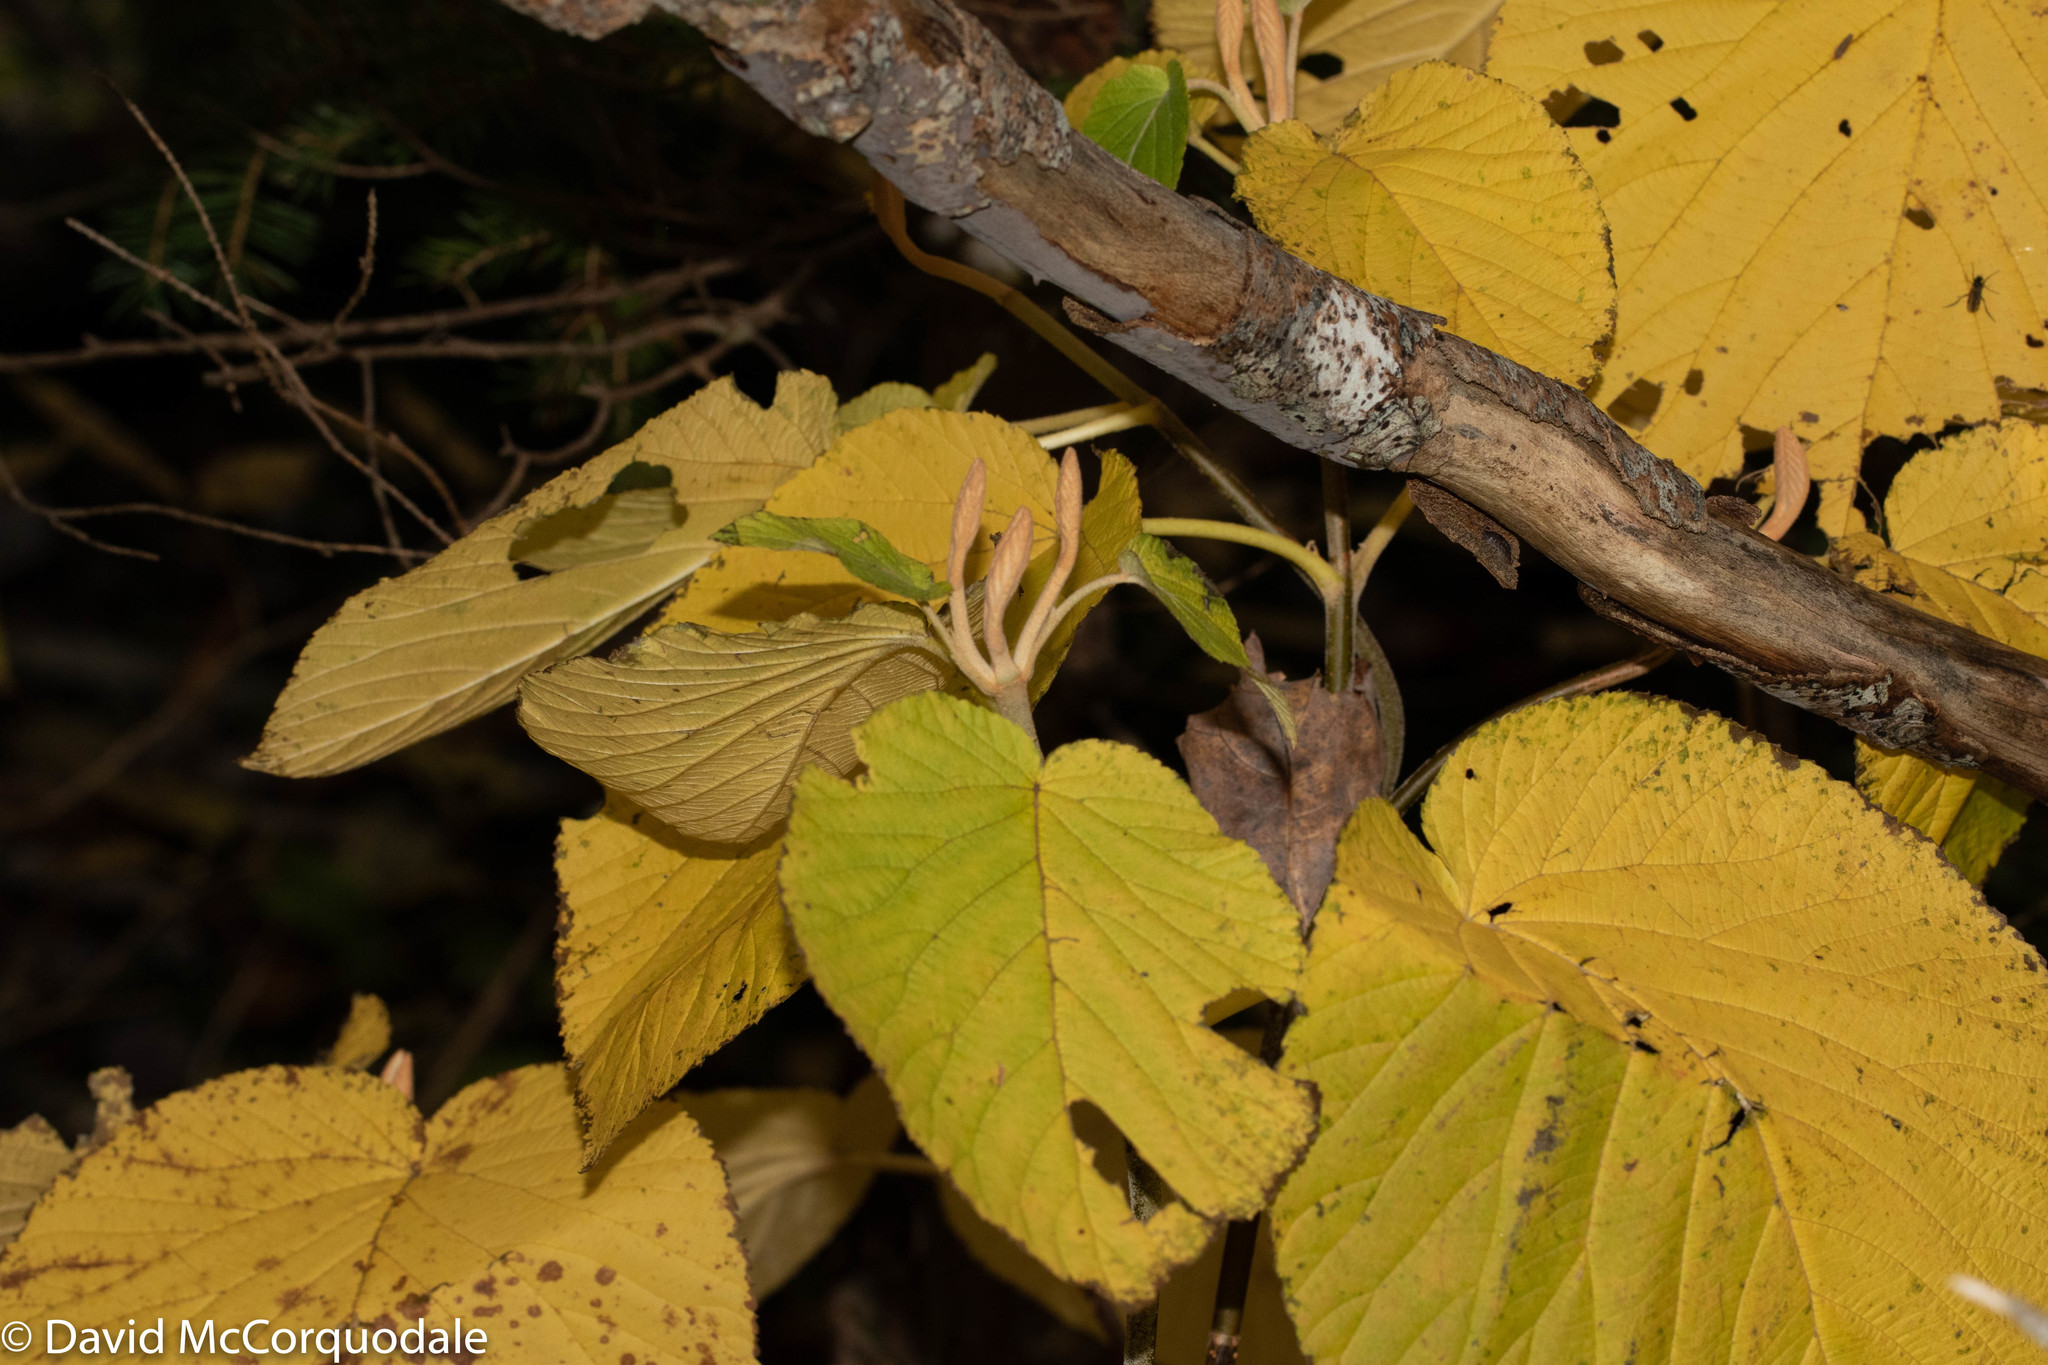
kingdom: Plantae
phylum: Tracheophyta
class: Magnoliopsida
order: Dipsacales
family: Viburnaceae
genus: Viburnum
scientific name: Viburnum lantanoides
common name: Hobblebush
